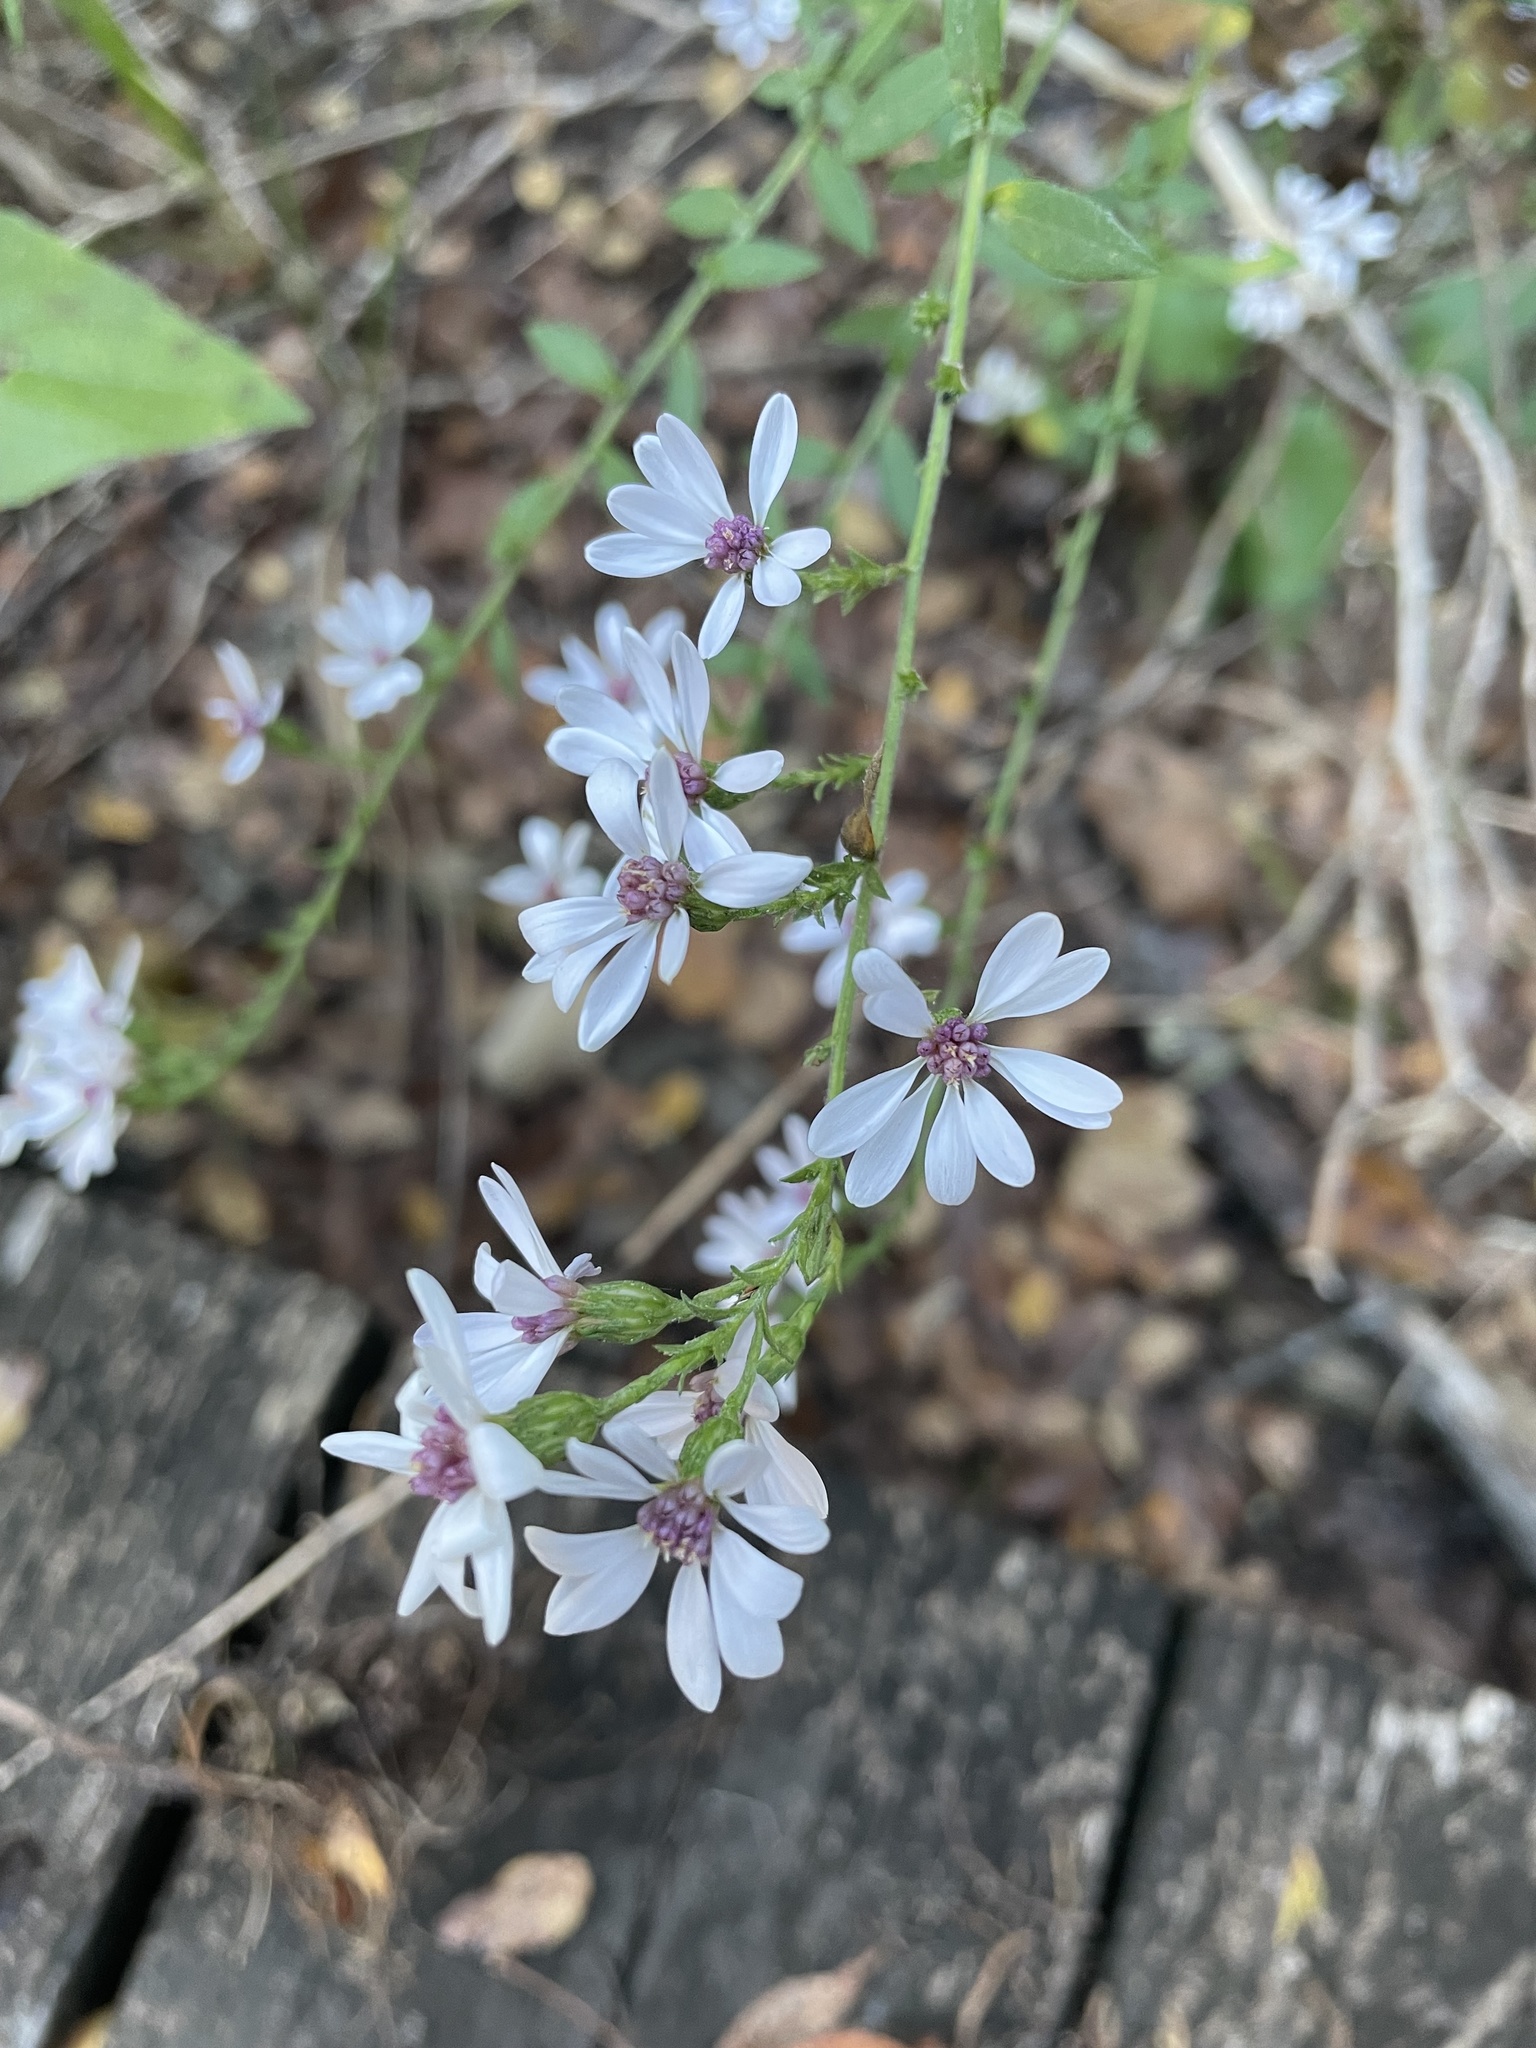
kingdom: Plantae
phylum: Tracheophyta
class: Magnoliopsida
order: Asterales
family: Asteraceae
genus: Symphyotrichum
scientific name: Symphyotrichum drummondii
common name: Drummond's aster
